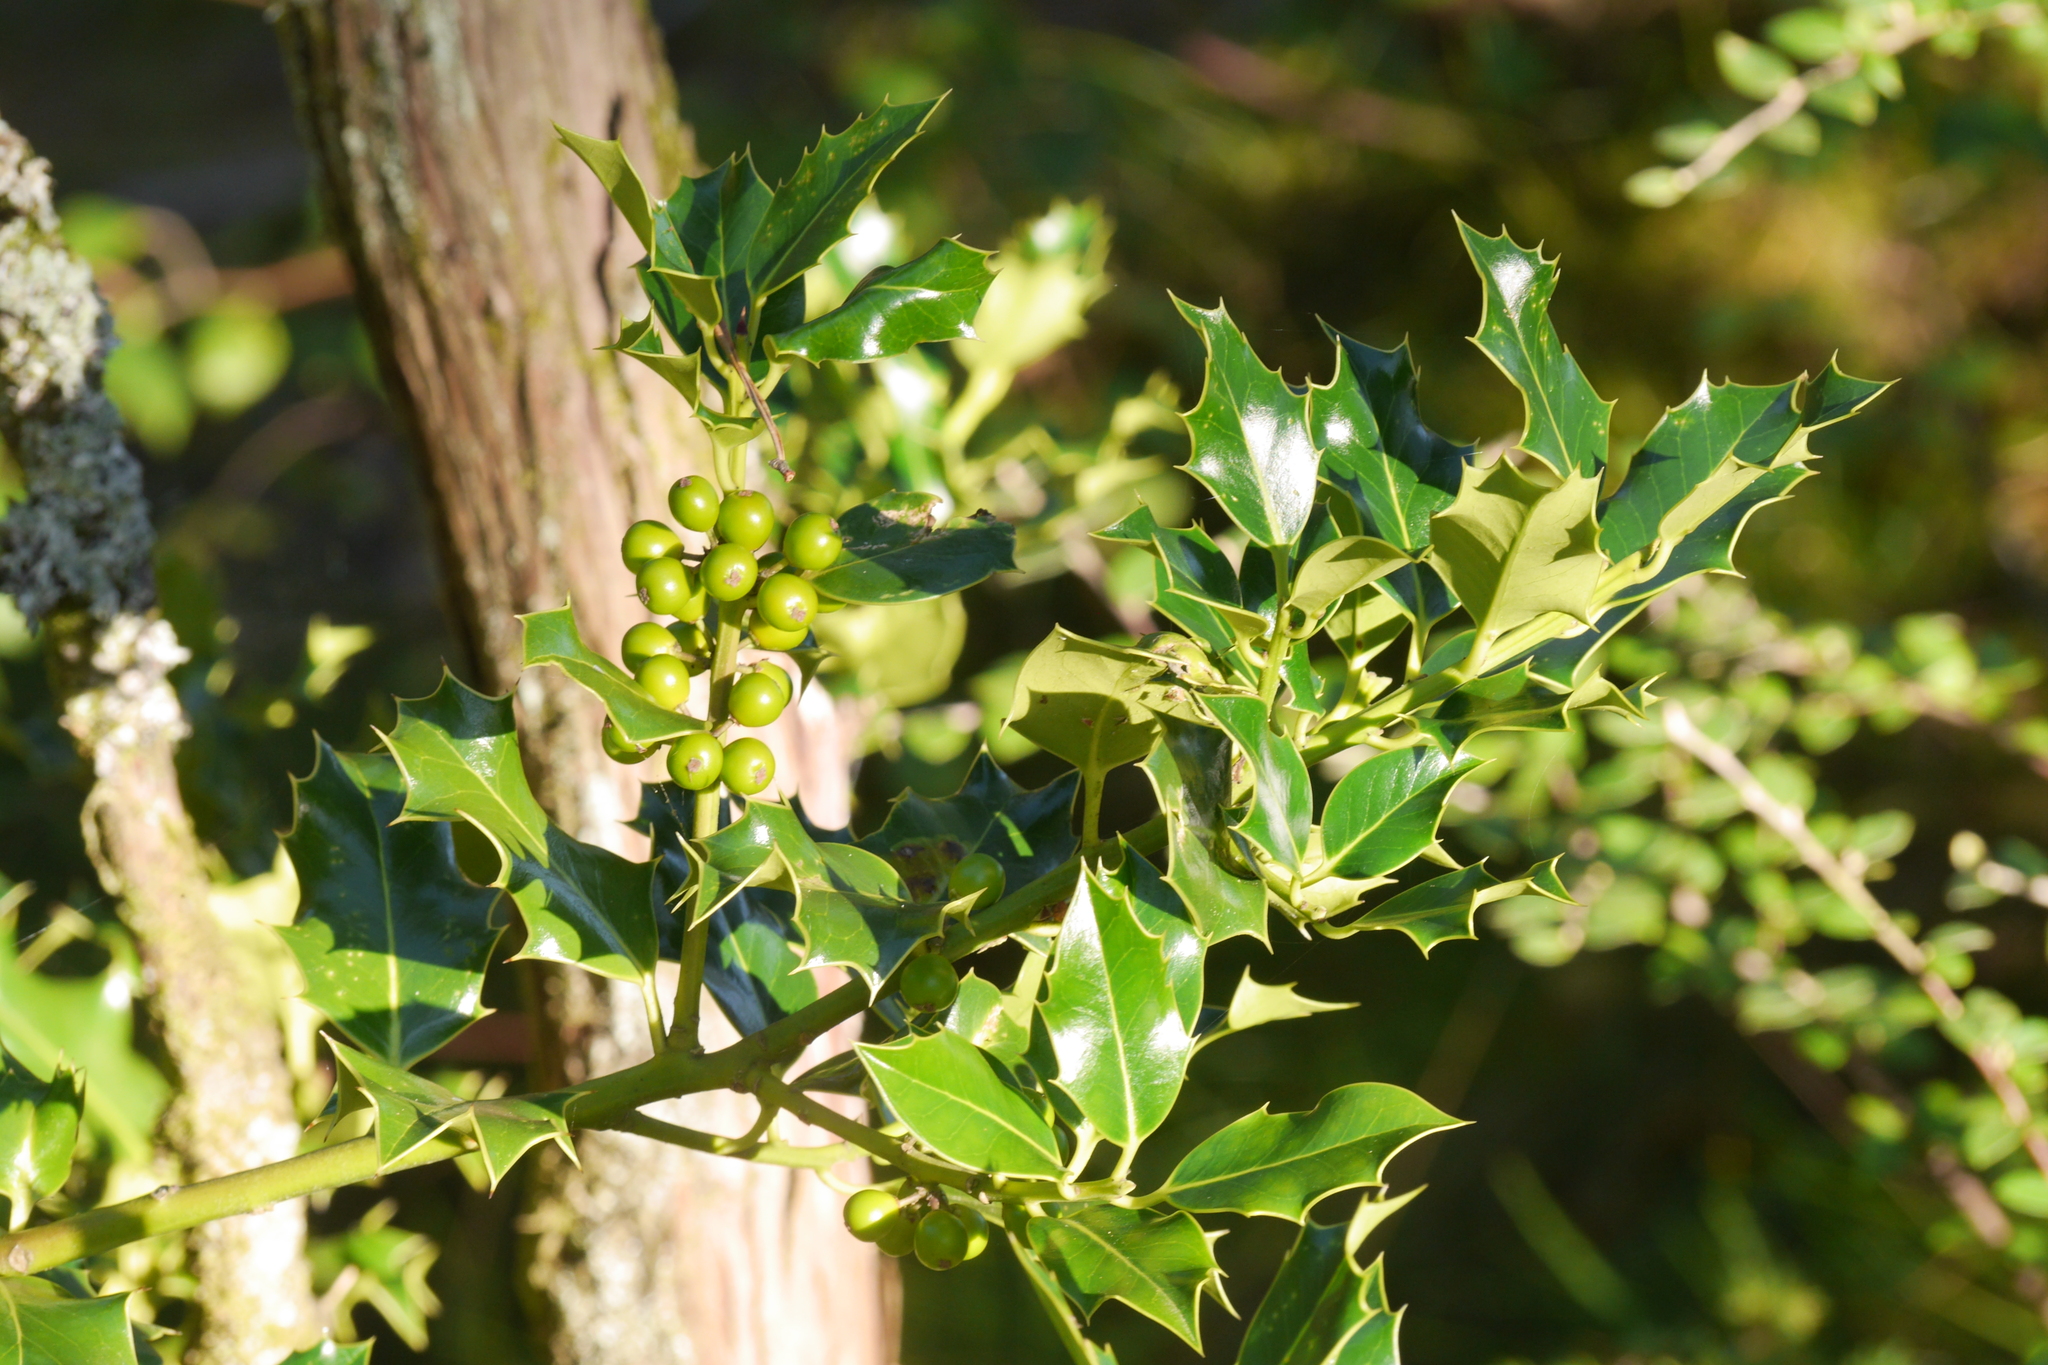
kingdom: Plantae
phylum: Tracheophyta
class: Magnoliopsida
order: Aquifoliales
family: Aquifoliaceae
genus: Ilex
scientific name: Ilex aquifolium
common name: English holly
